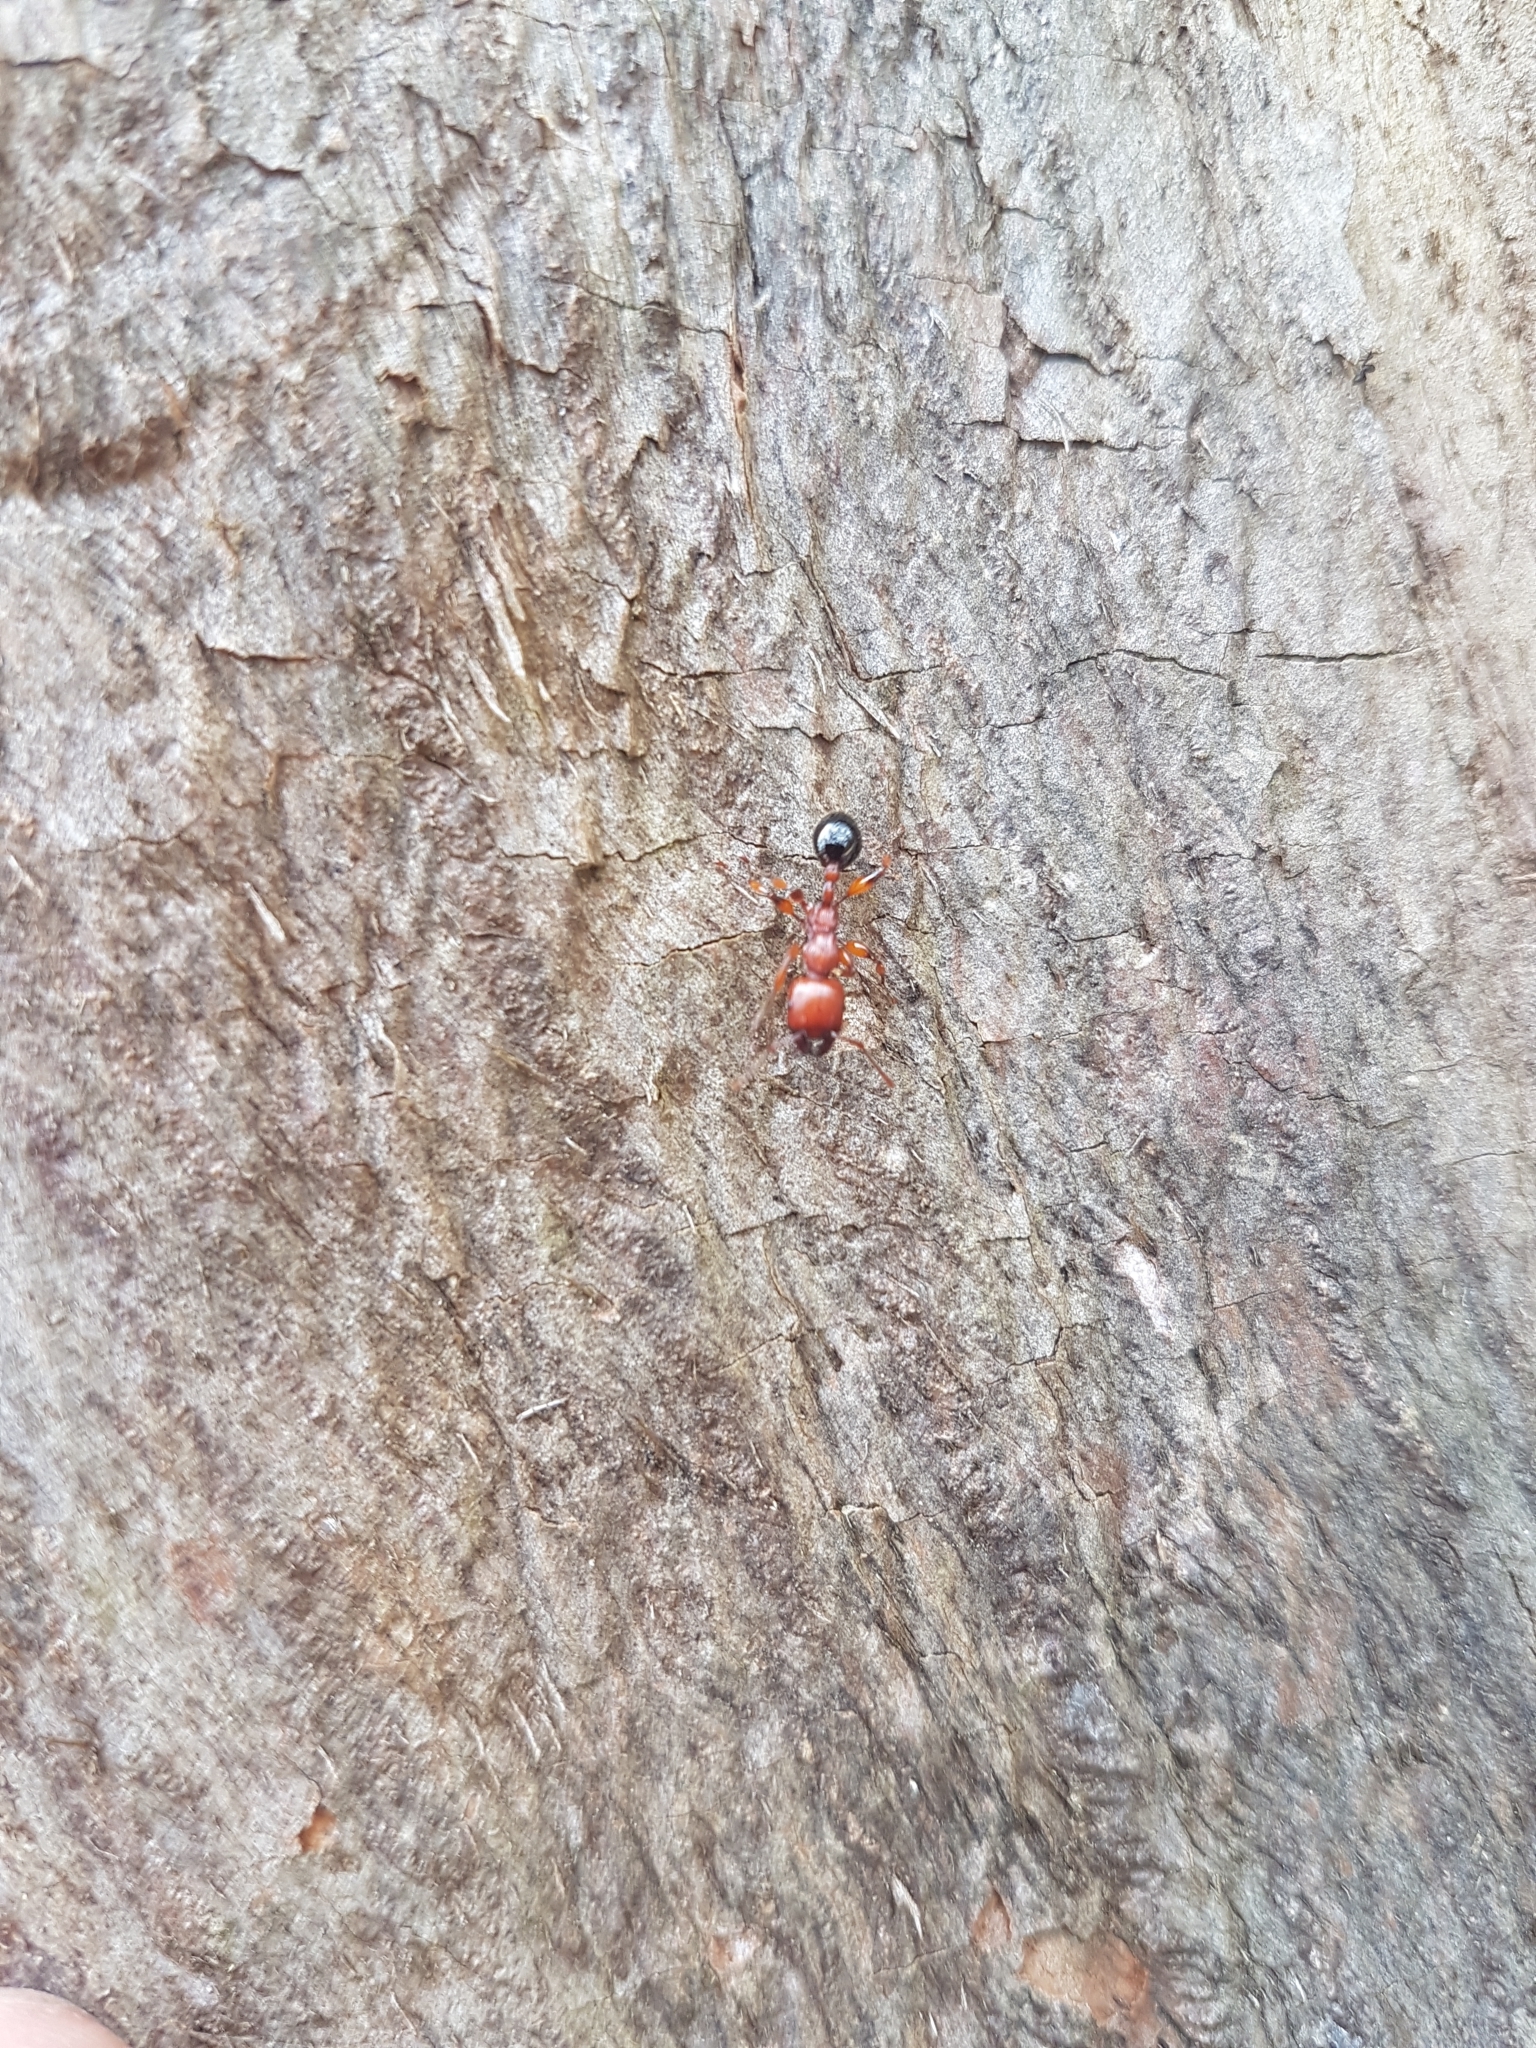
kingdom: Animalia
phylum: Arthropoda
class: Insecta
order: Hymenoptera
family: Formicidae
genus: Podomyrma
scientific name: Podomyrma gratiosa
